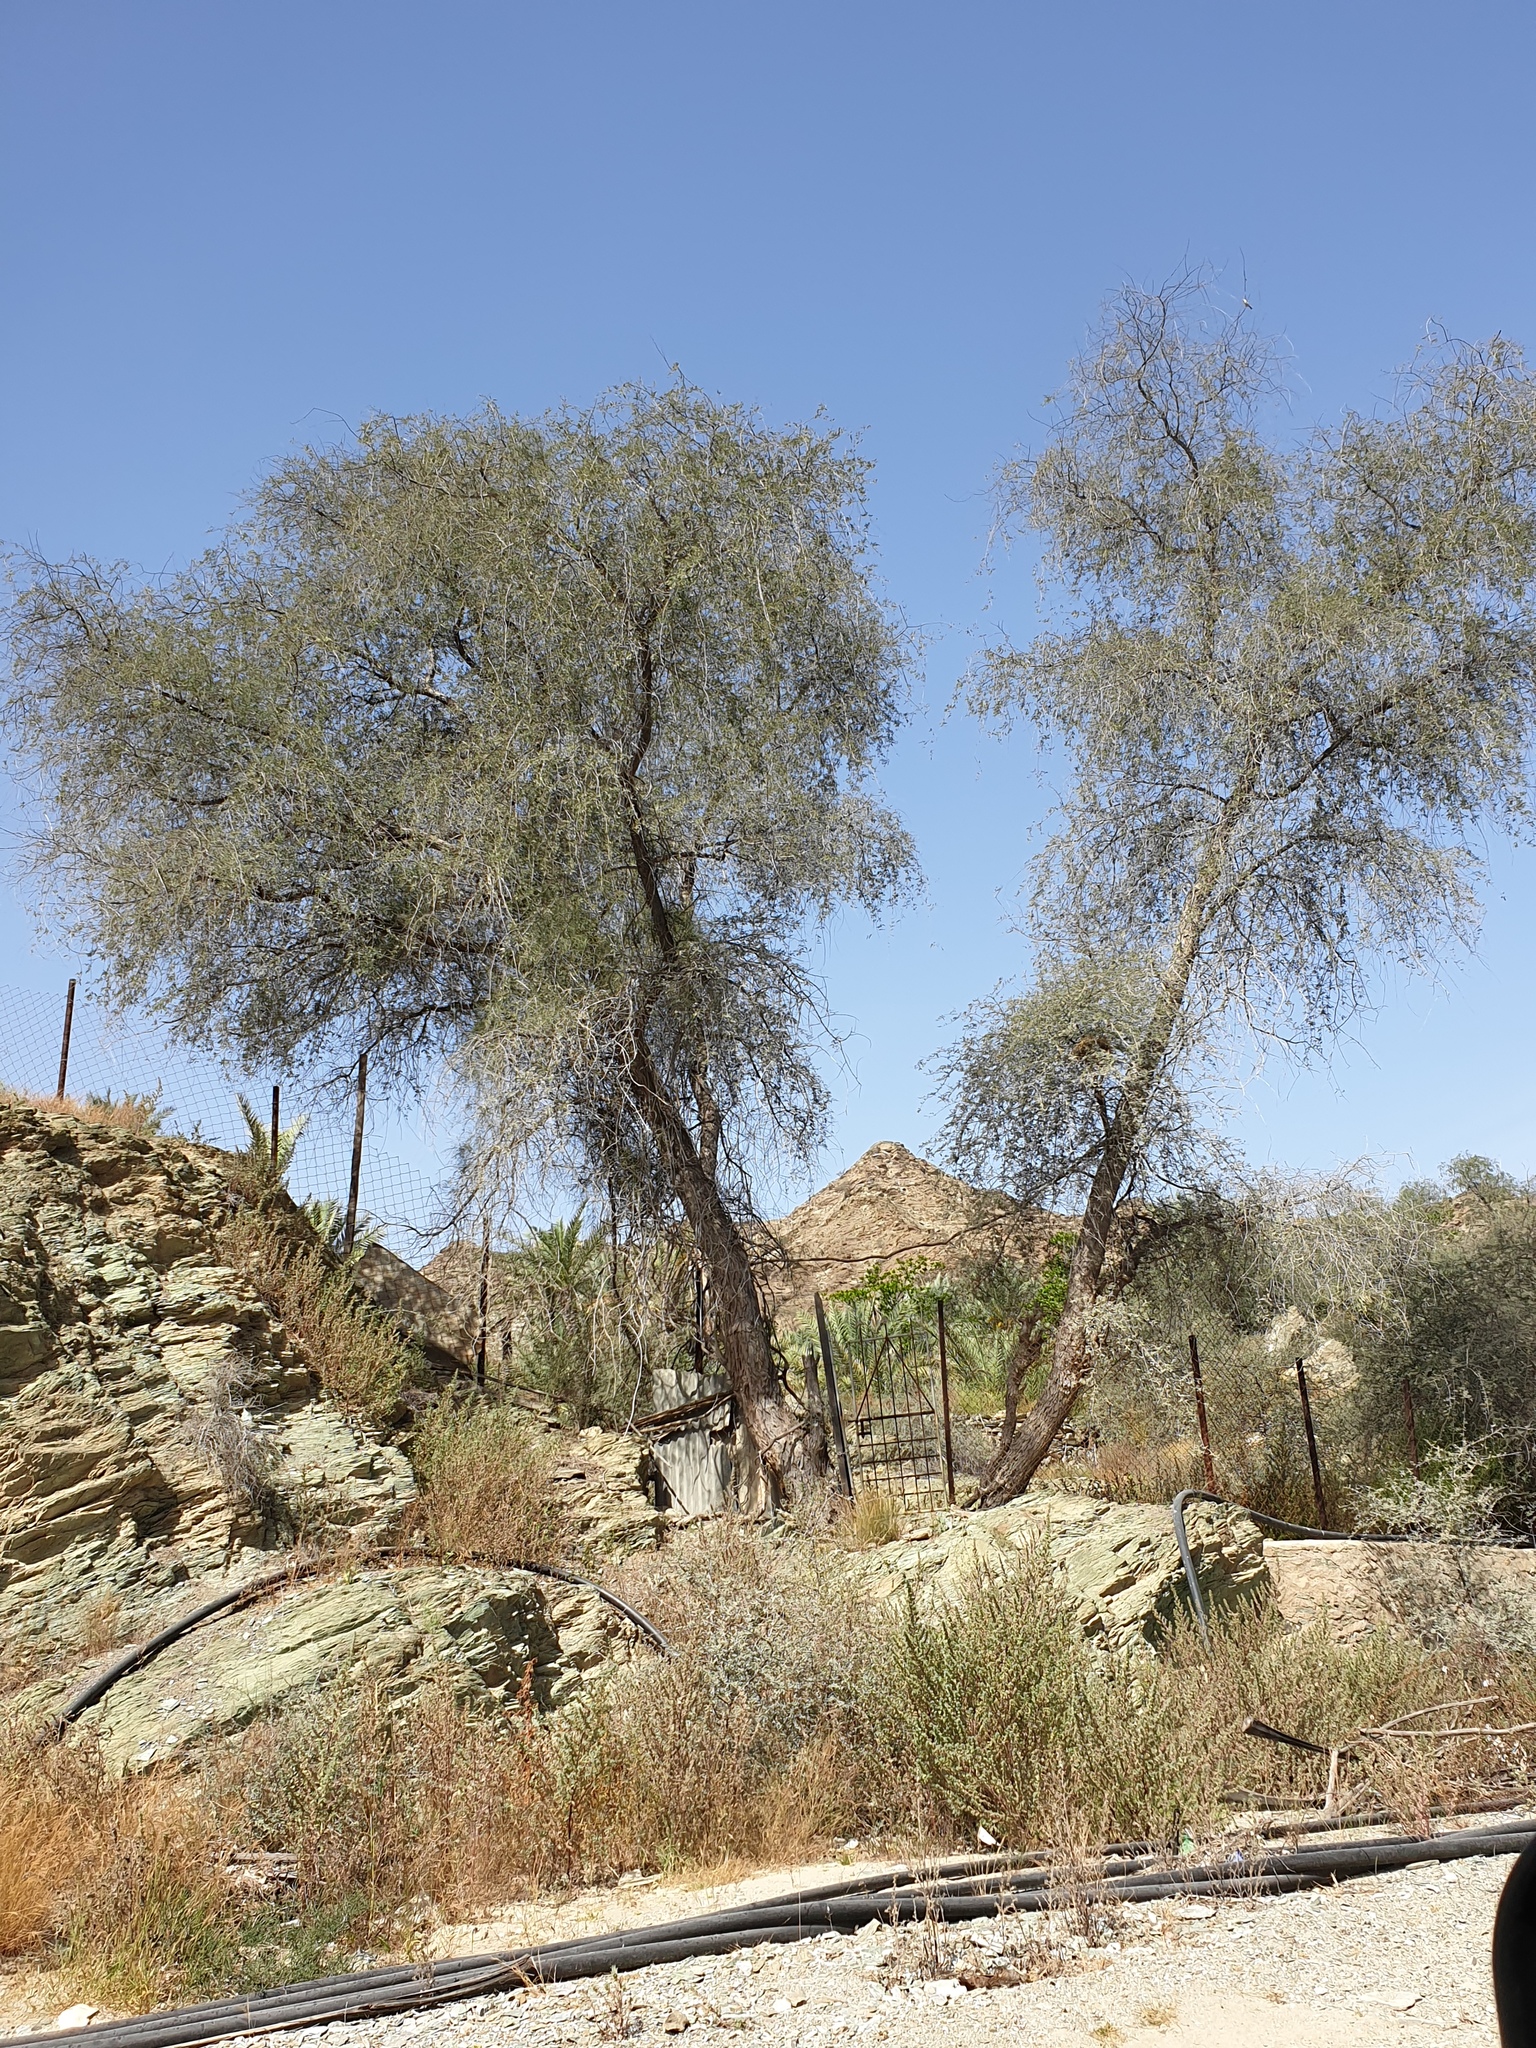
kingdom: Plantae
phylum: Tracheophyta
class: Magnoliopsida
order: Fabales
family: Fabaceae
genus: Prosopis
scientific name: Prosopis cineraria
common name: Jandi
